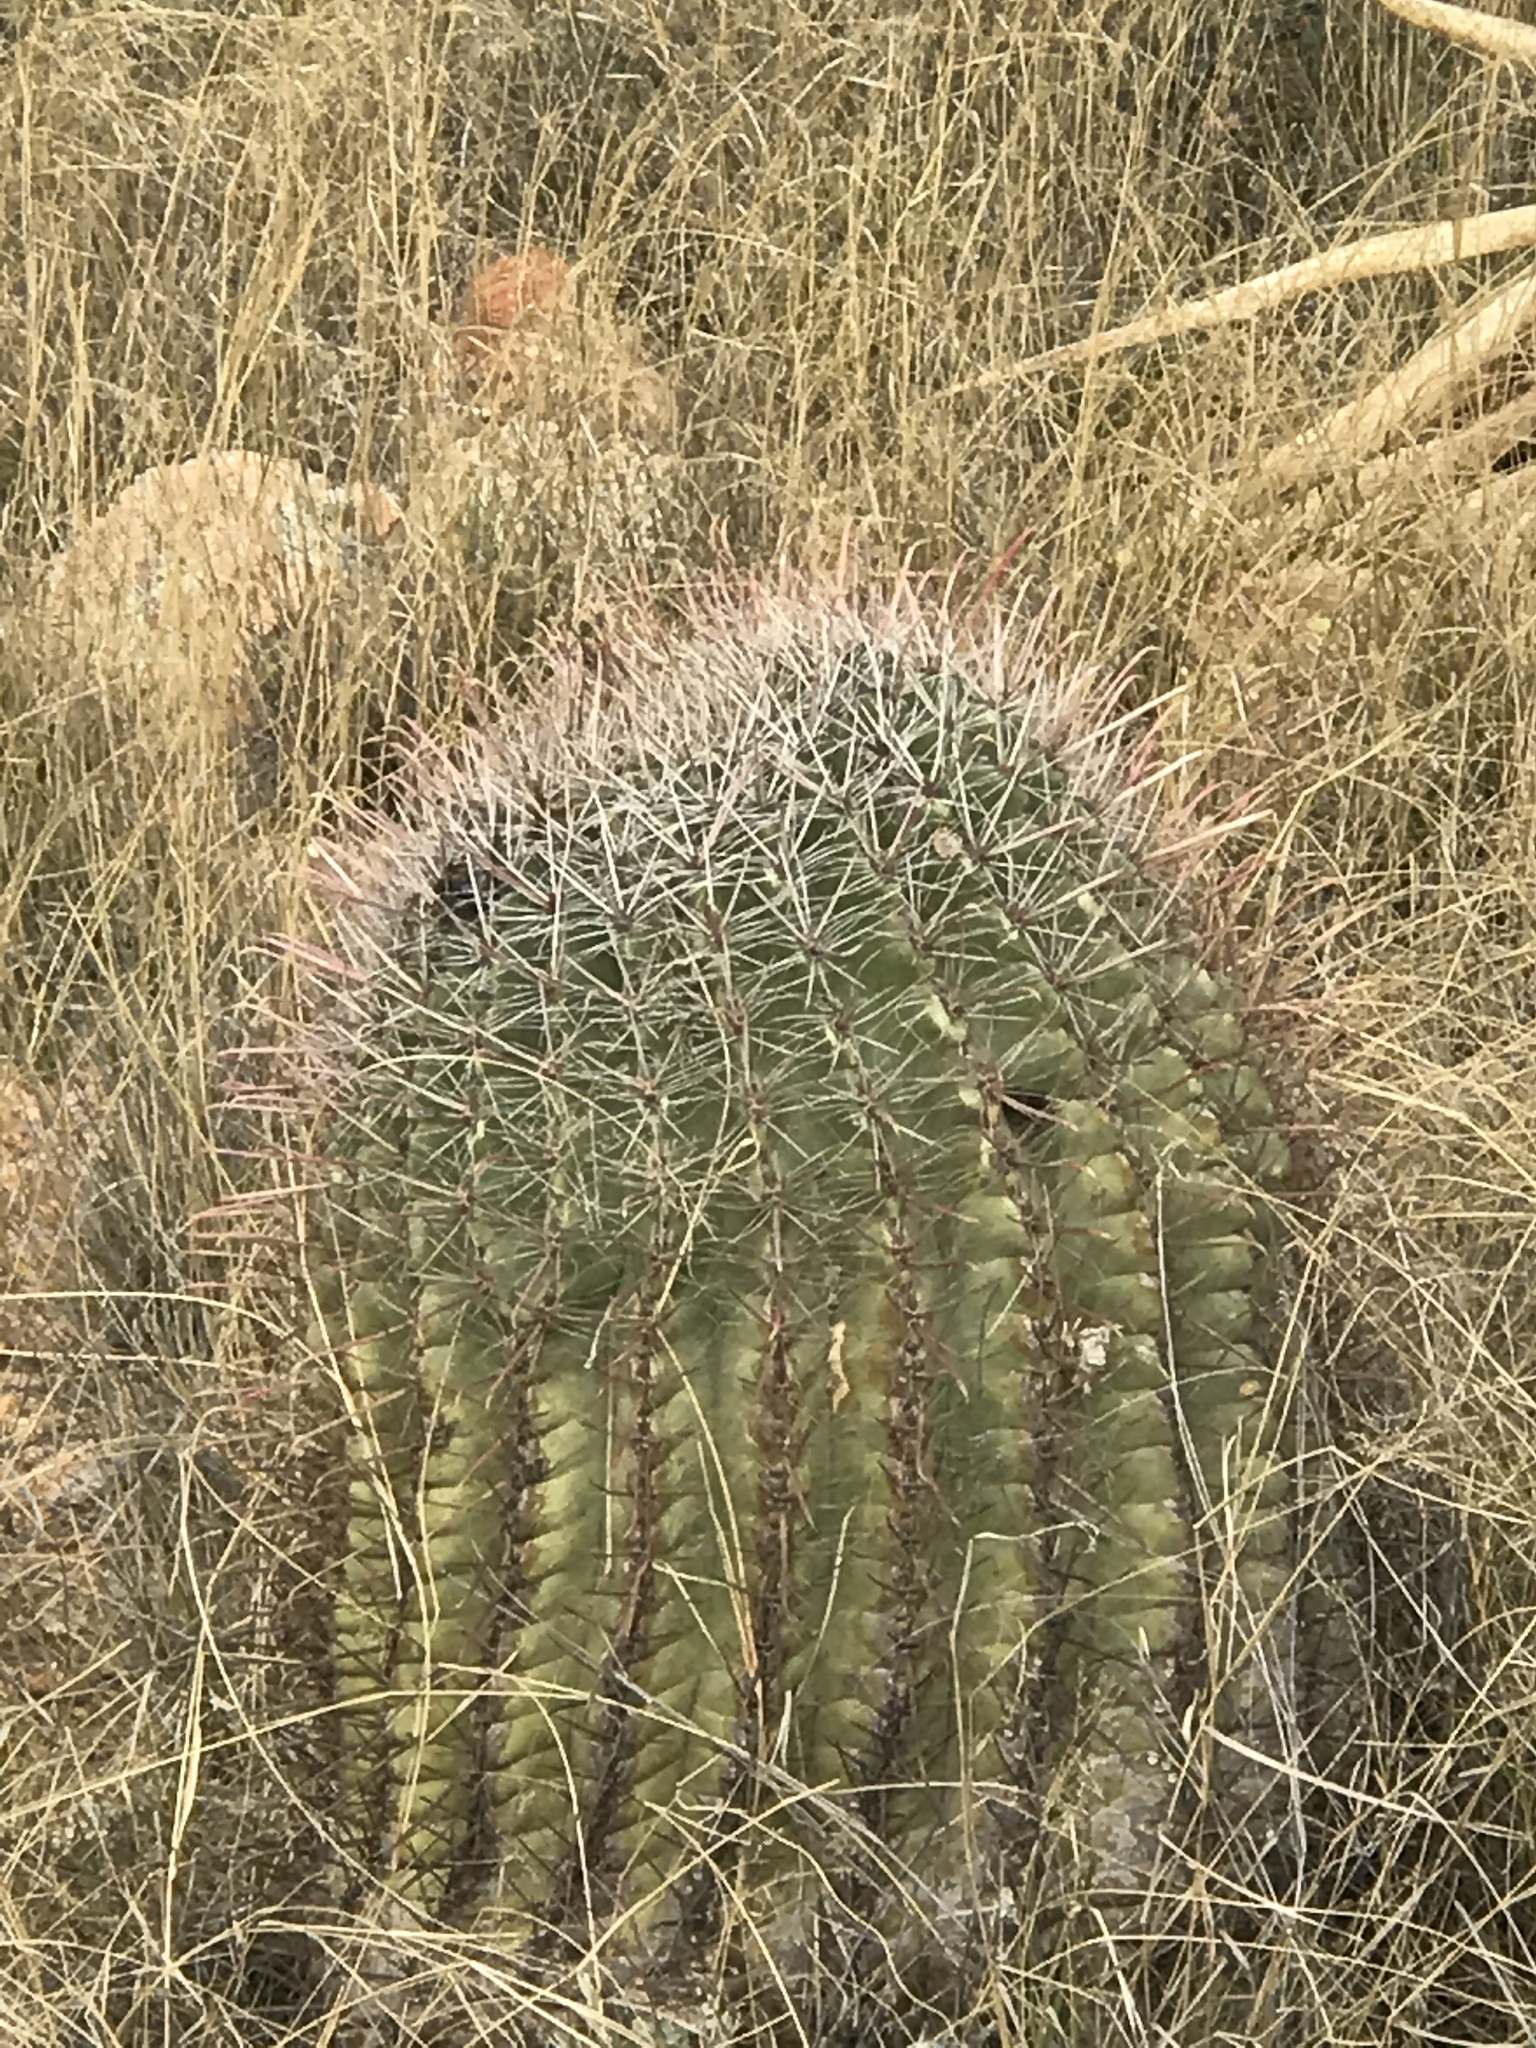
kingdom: Plantae
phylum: Tracheophyta
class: Magnoliopsida
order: Caryophyllales
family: Cactaceae
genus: Ferocactus
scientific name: Ferocactus wislizeni
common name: Candy barrel cactus
